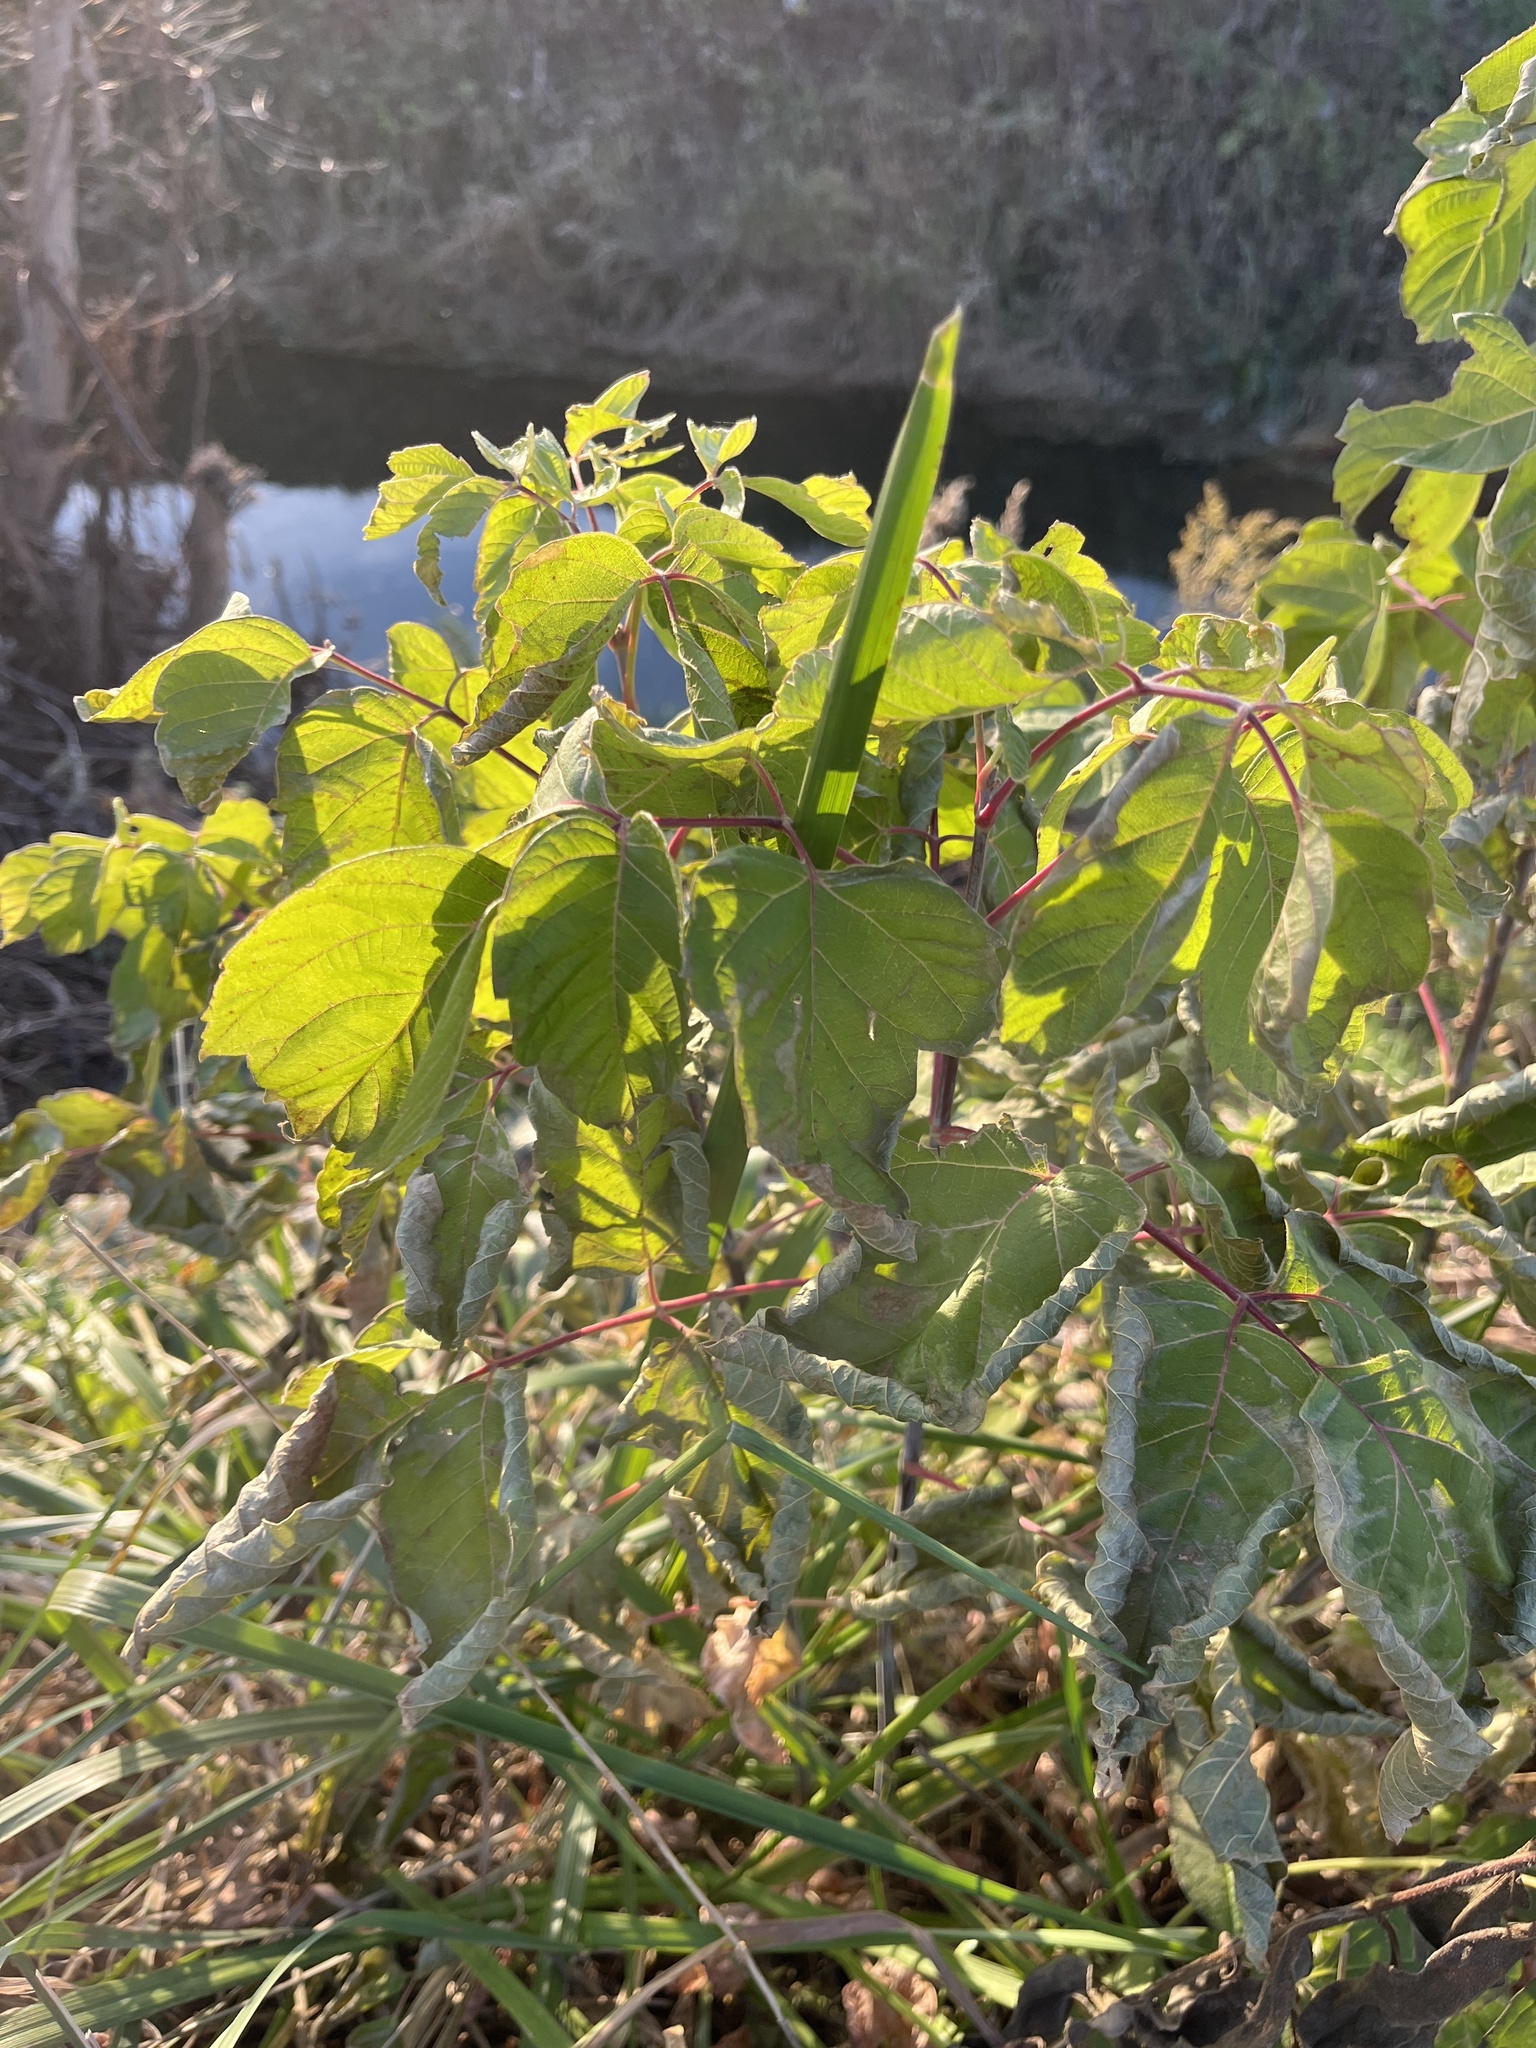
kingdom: Plantae
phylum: Tracheophyta
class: Magnoliopsida
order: Sapindales
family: Sapindaceae
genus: Acer
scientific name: Acer negundo
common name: Ashleaf maple
